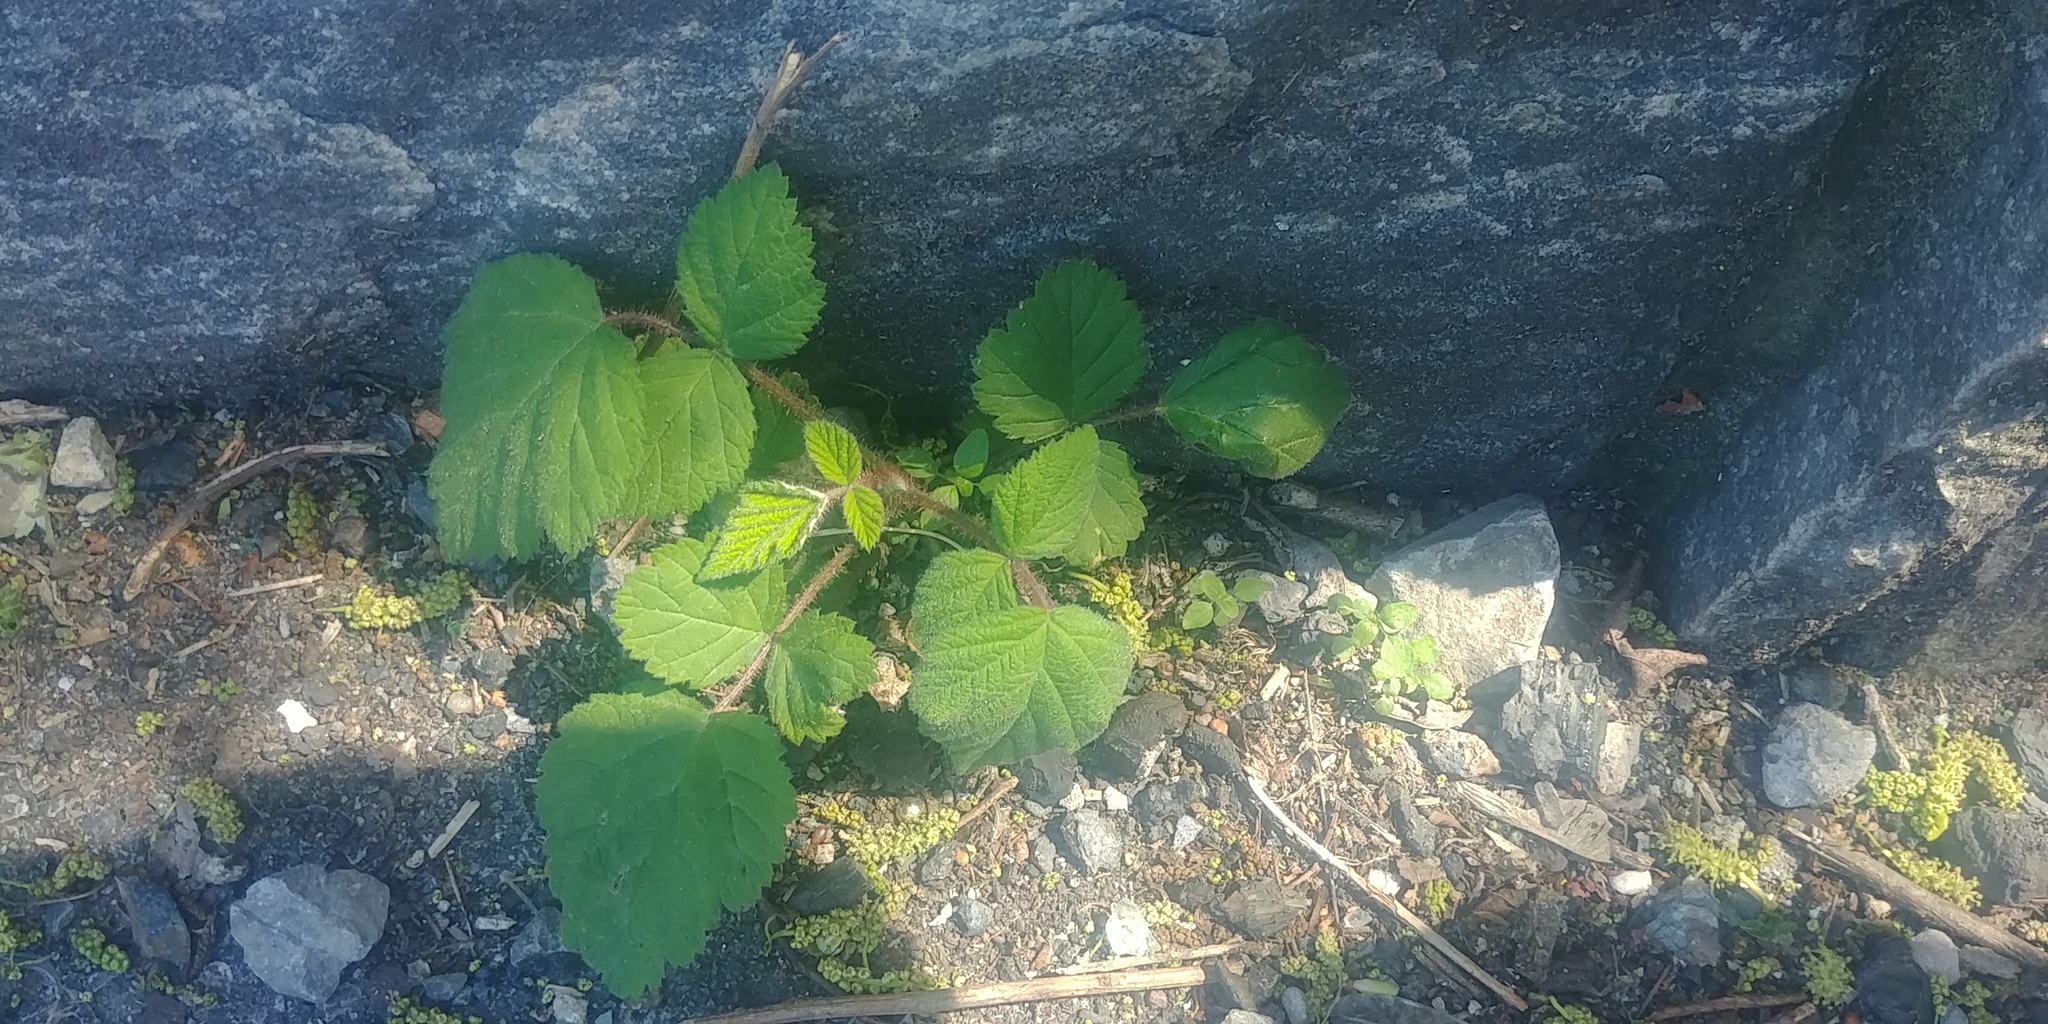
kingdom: Plantae
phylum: Tracheophyta
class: Magnoliopsida
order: Rosales
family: Rosaceae
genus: Rubus
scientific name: Rubus phoenicolasius
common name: Japanese wineberry
